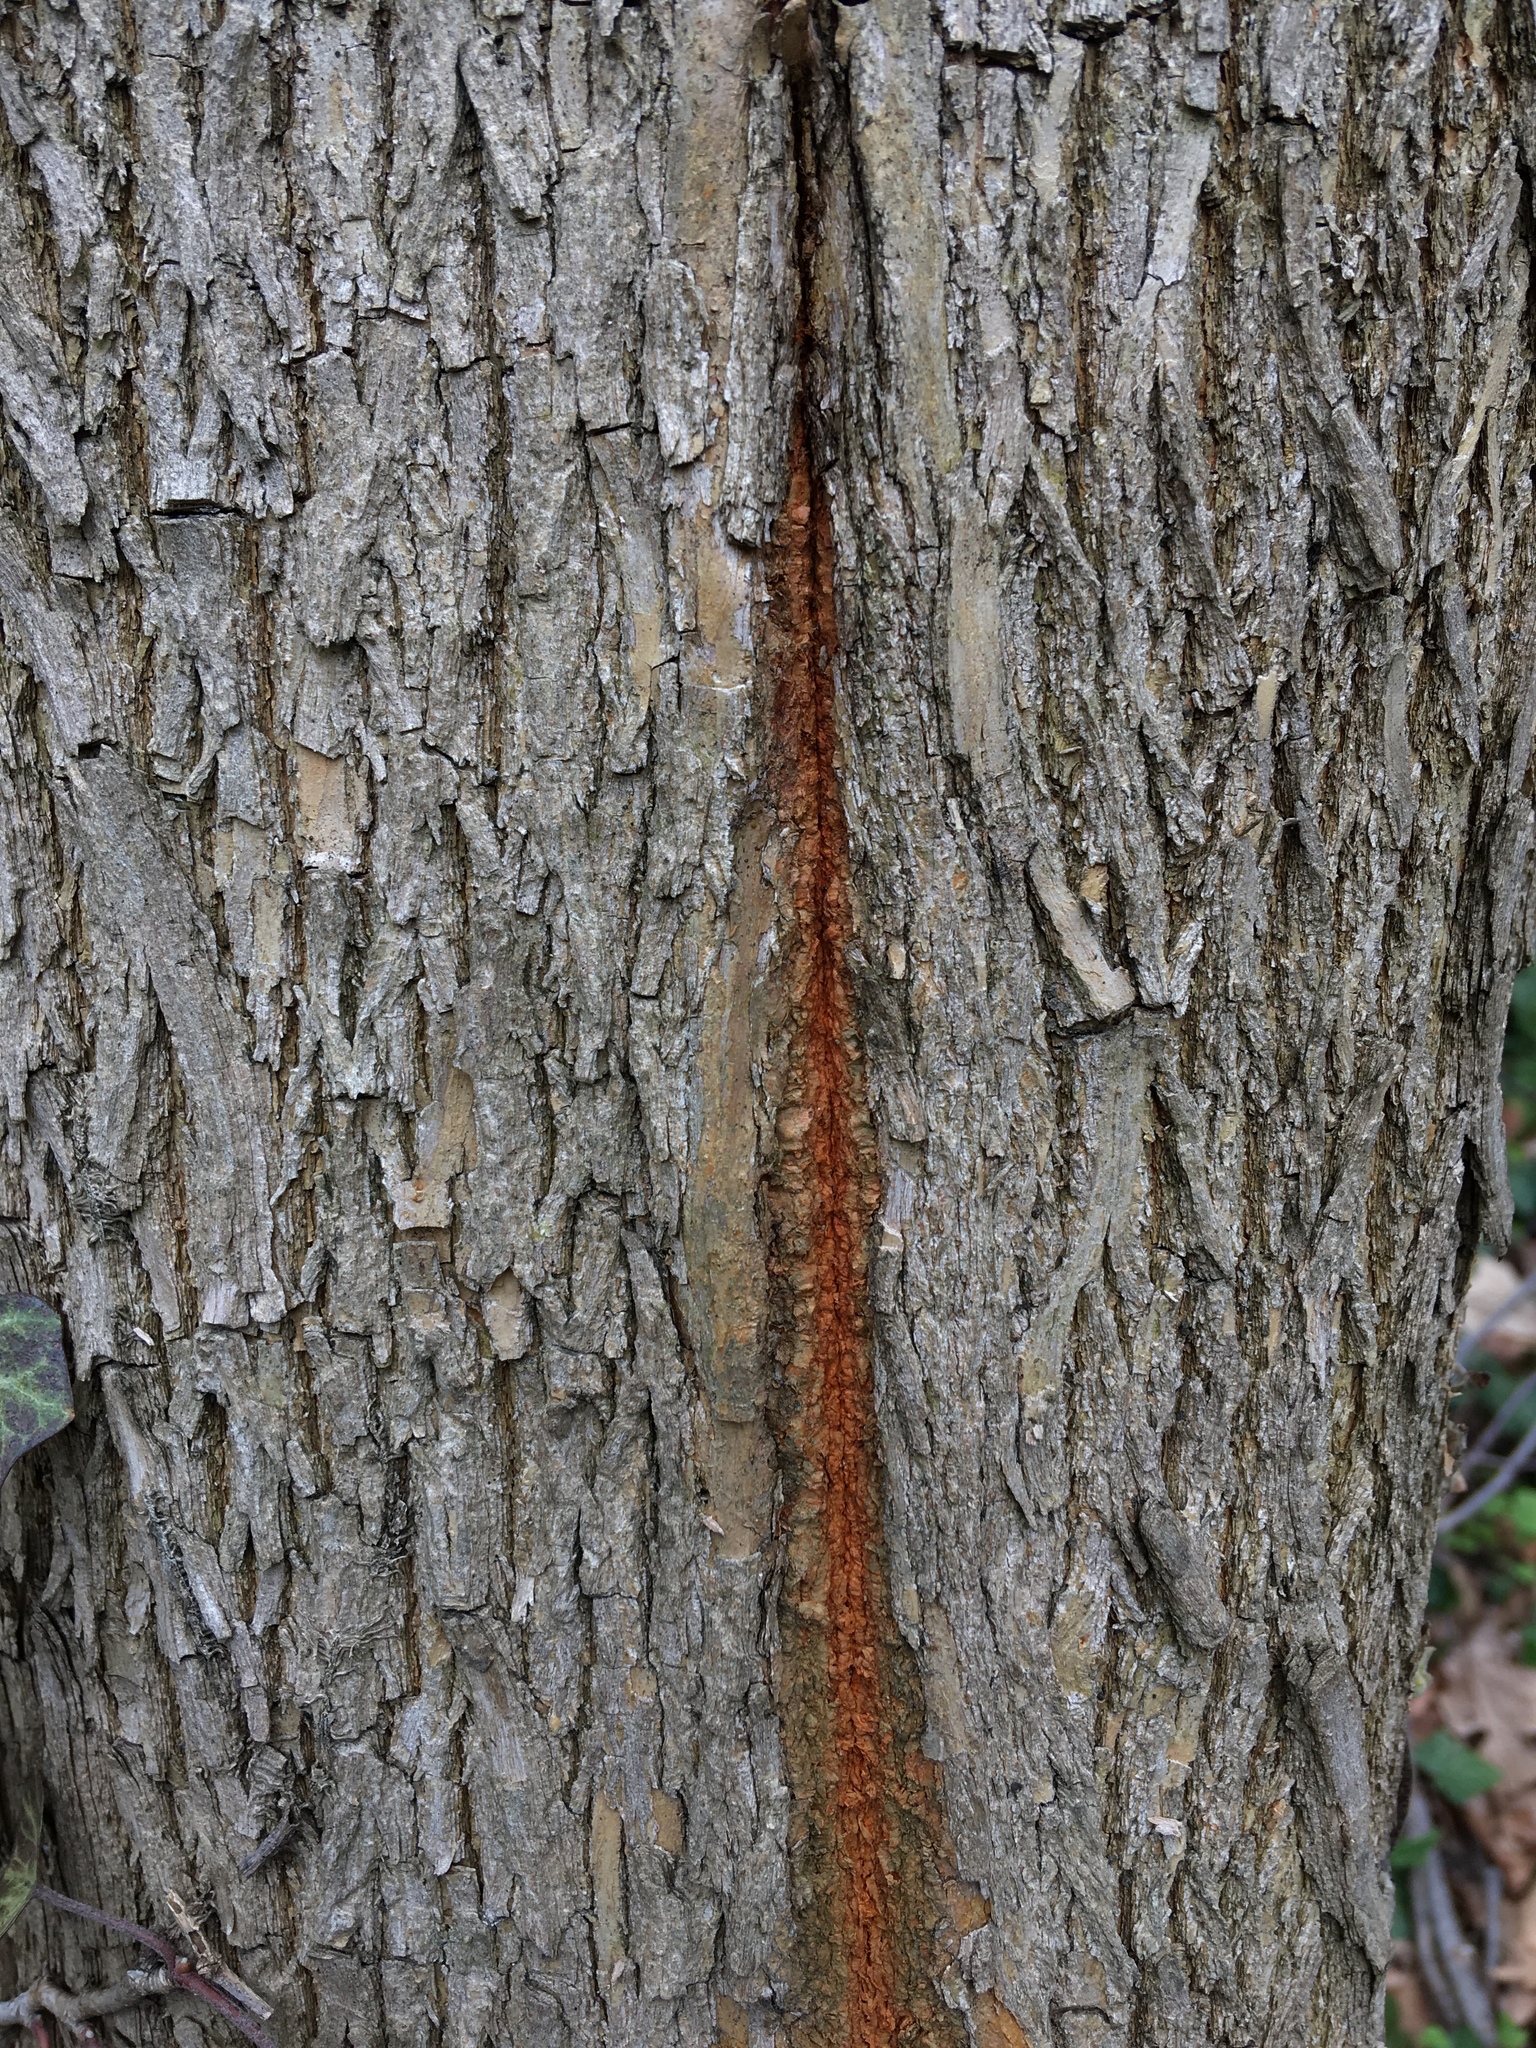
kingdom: Plantae
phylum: Tracheophyta
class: Magnoliopsida
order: Sapindales
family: Anacardiaceae
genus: Toxicodendron
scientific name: Toxicodendron radicans
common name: Poison ivy
